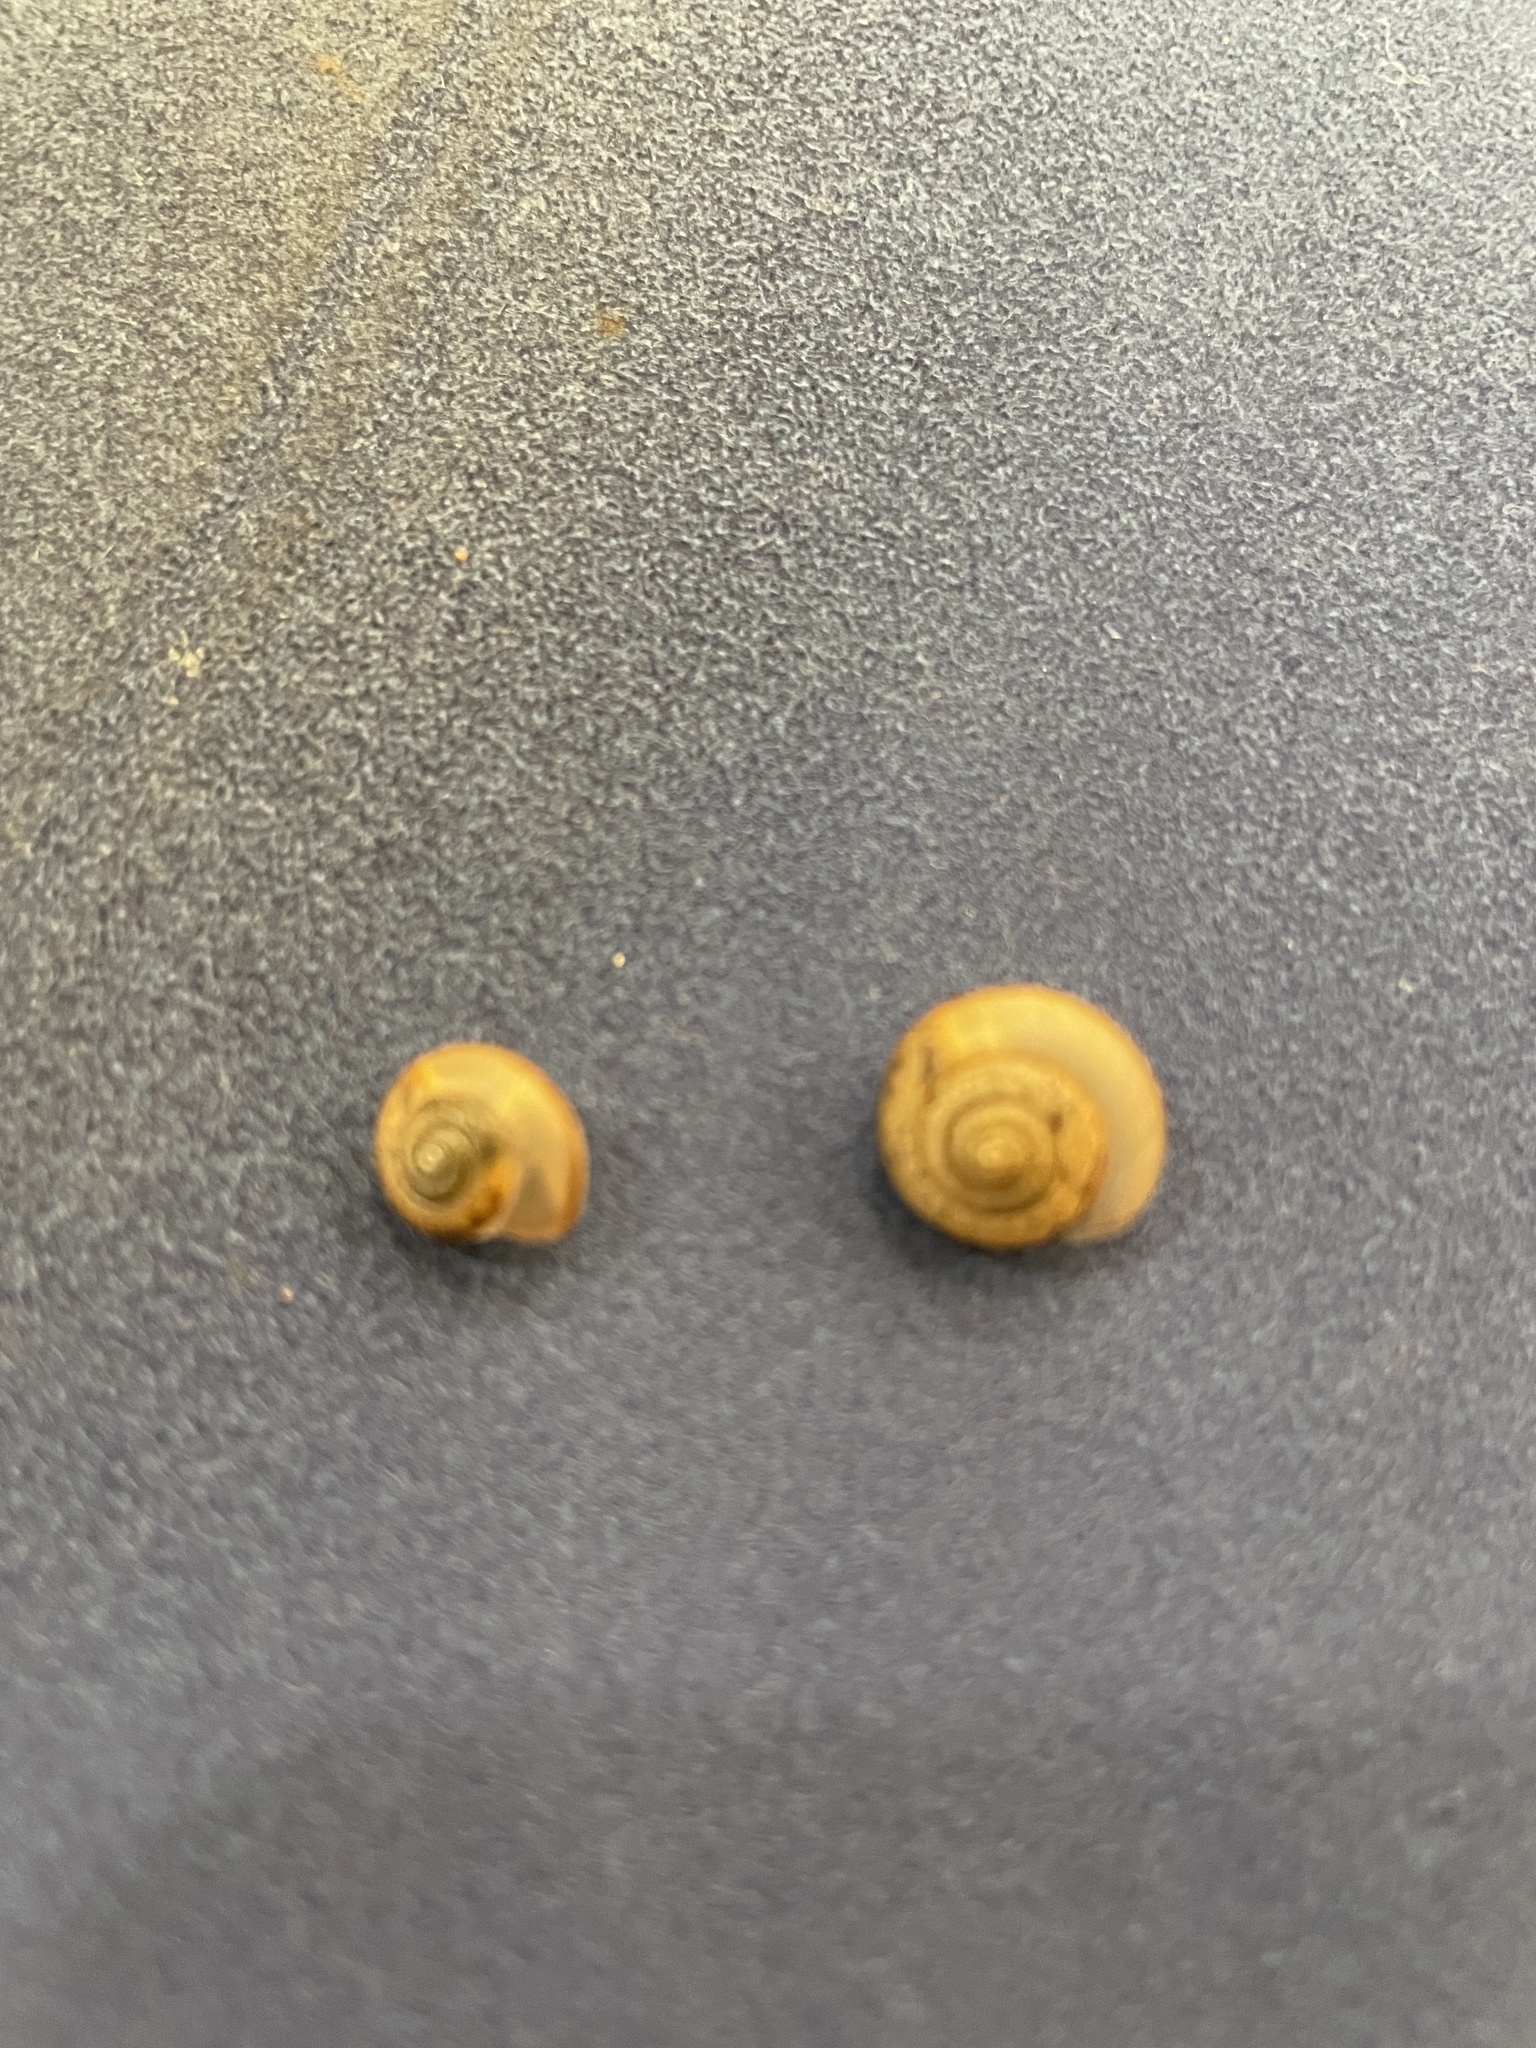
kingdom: Animalia
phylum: Mollusca
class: Gastropoda
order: Stylommatophora
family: Camaenidae
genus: Bradybaena
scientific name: Bradybaena similaris
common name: Asian trampsnail
